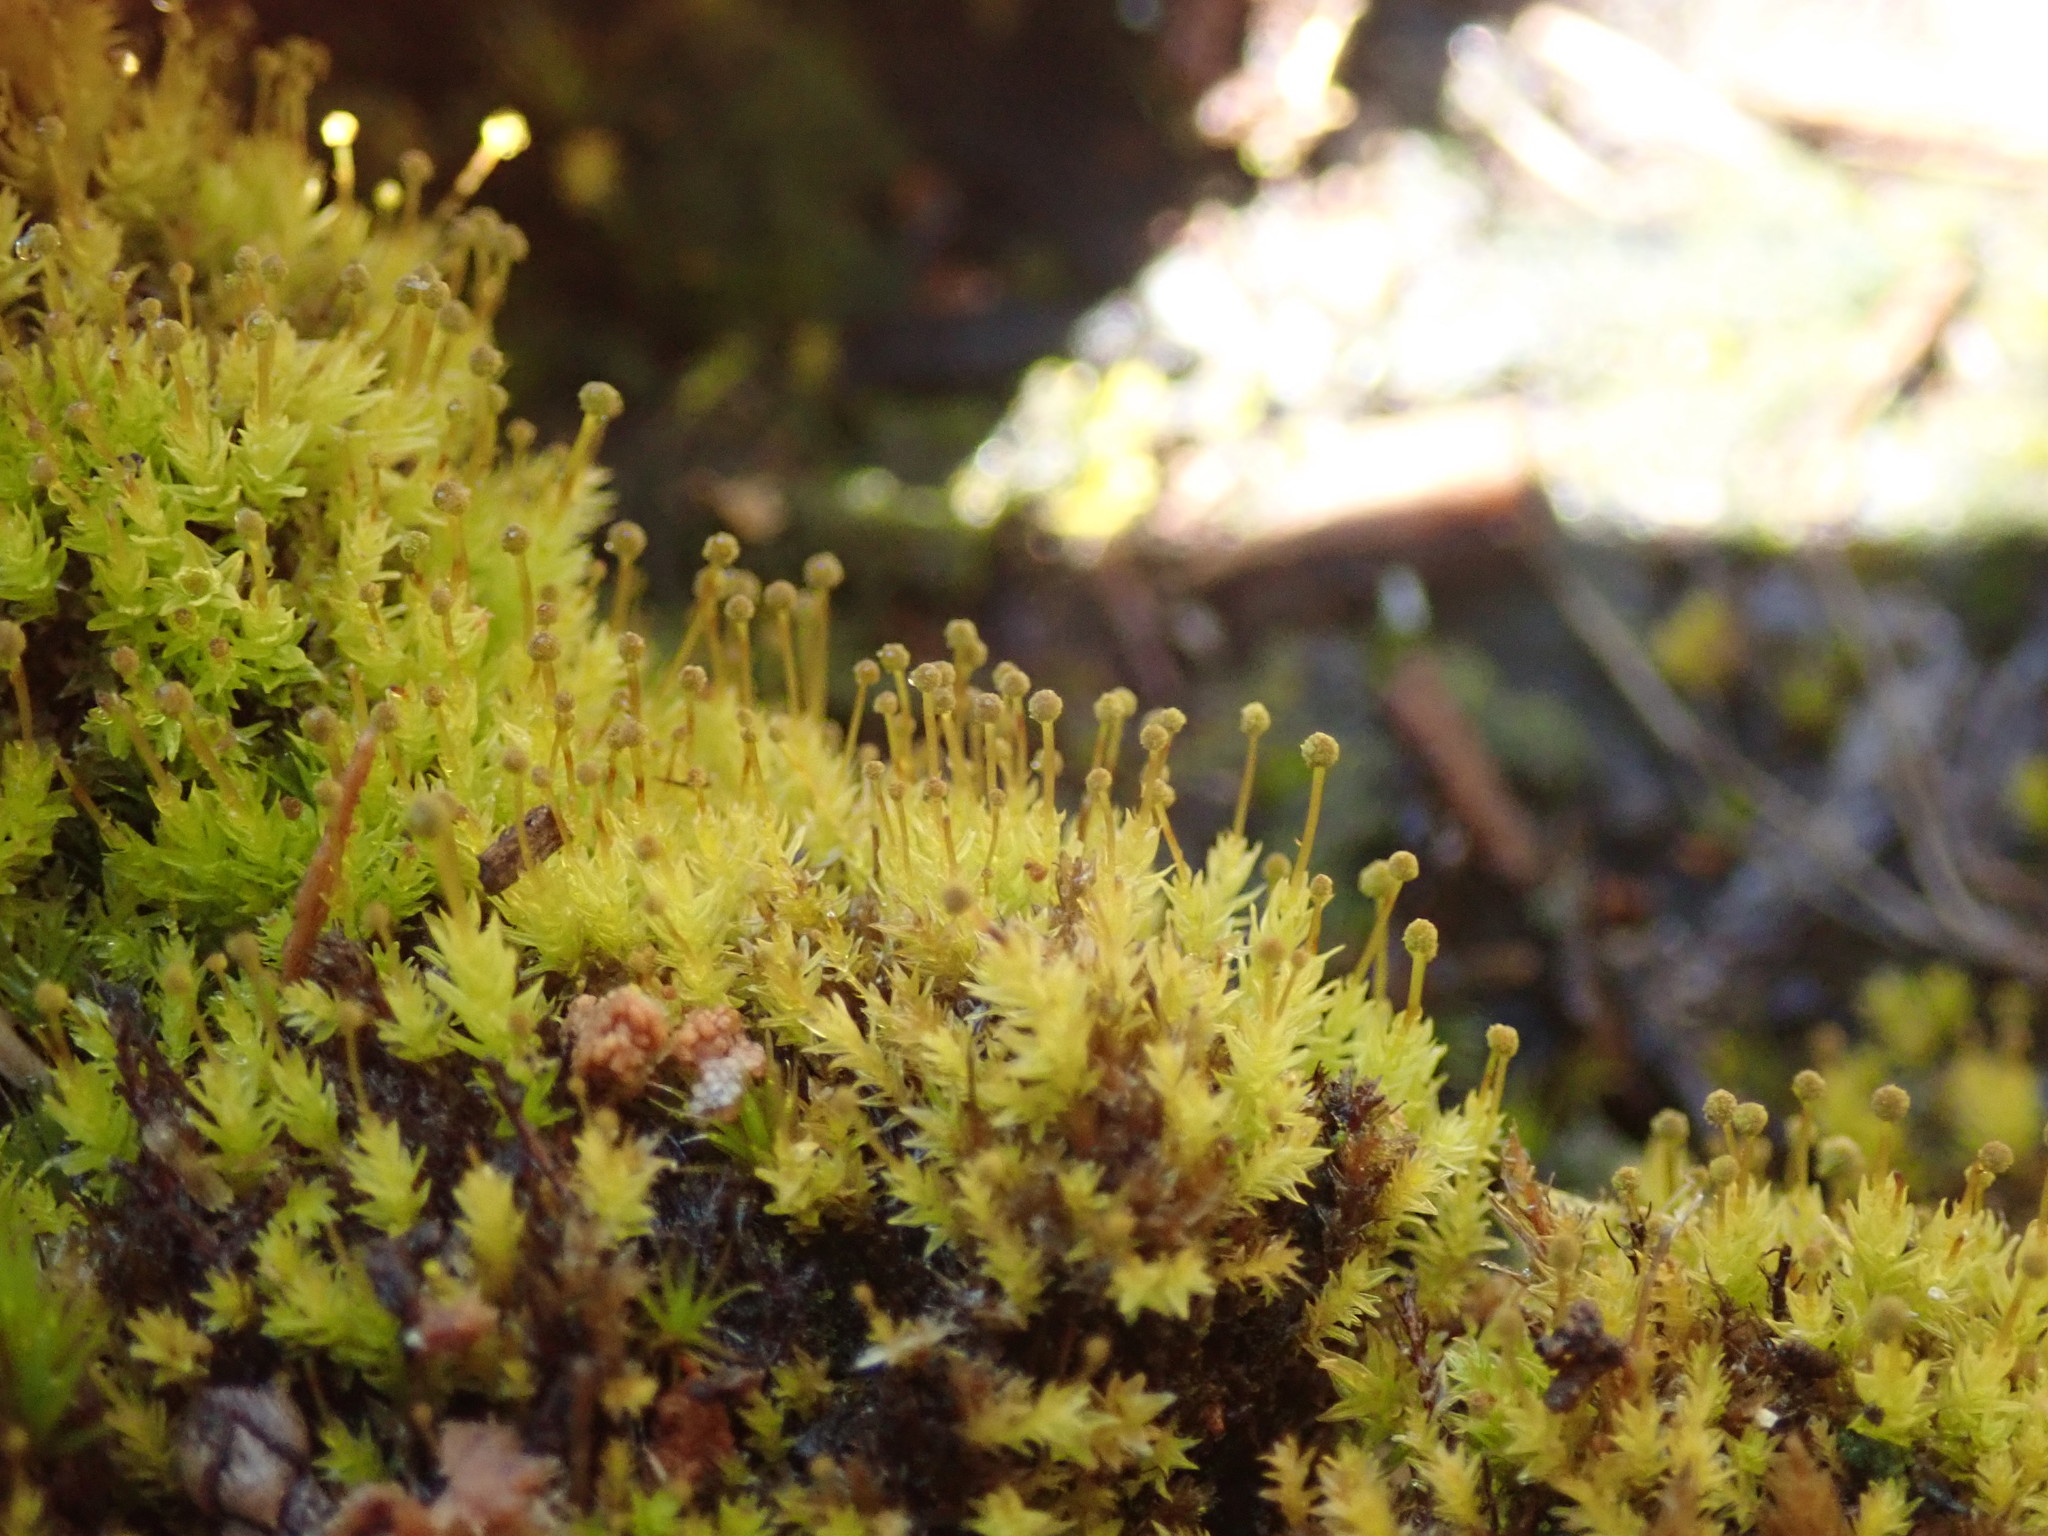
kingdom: Plantae
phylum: Bryophyta
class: Bryopsida
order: Aulacomniales
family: Aulacomniaceae
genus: Aulacomnium
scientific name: Aulacomnium androgynum
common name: Little groove moss
